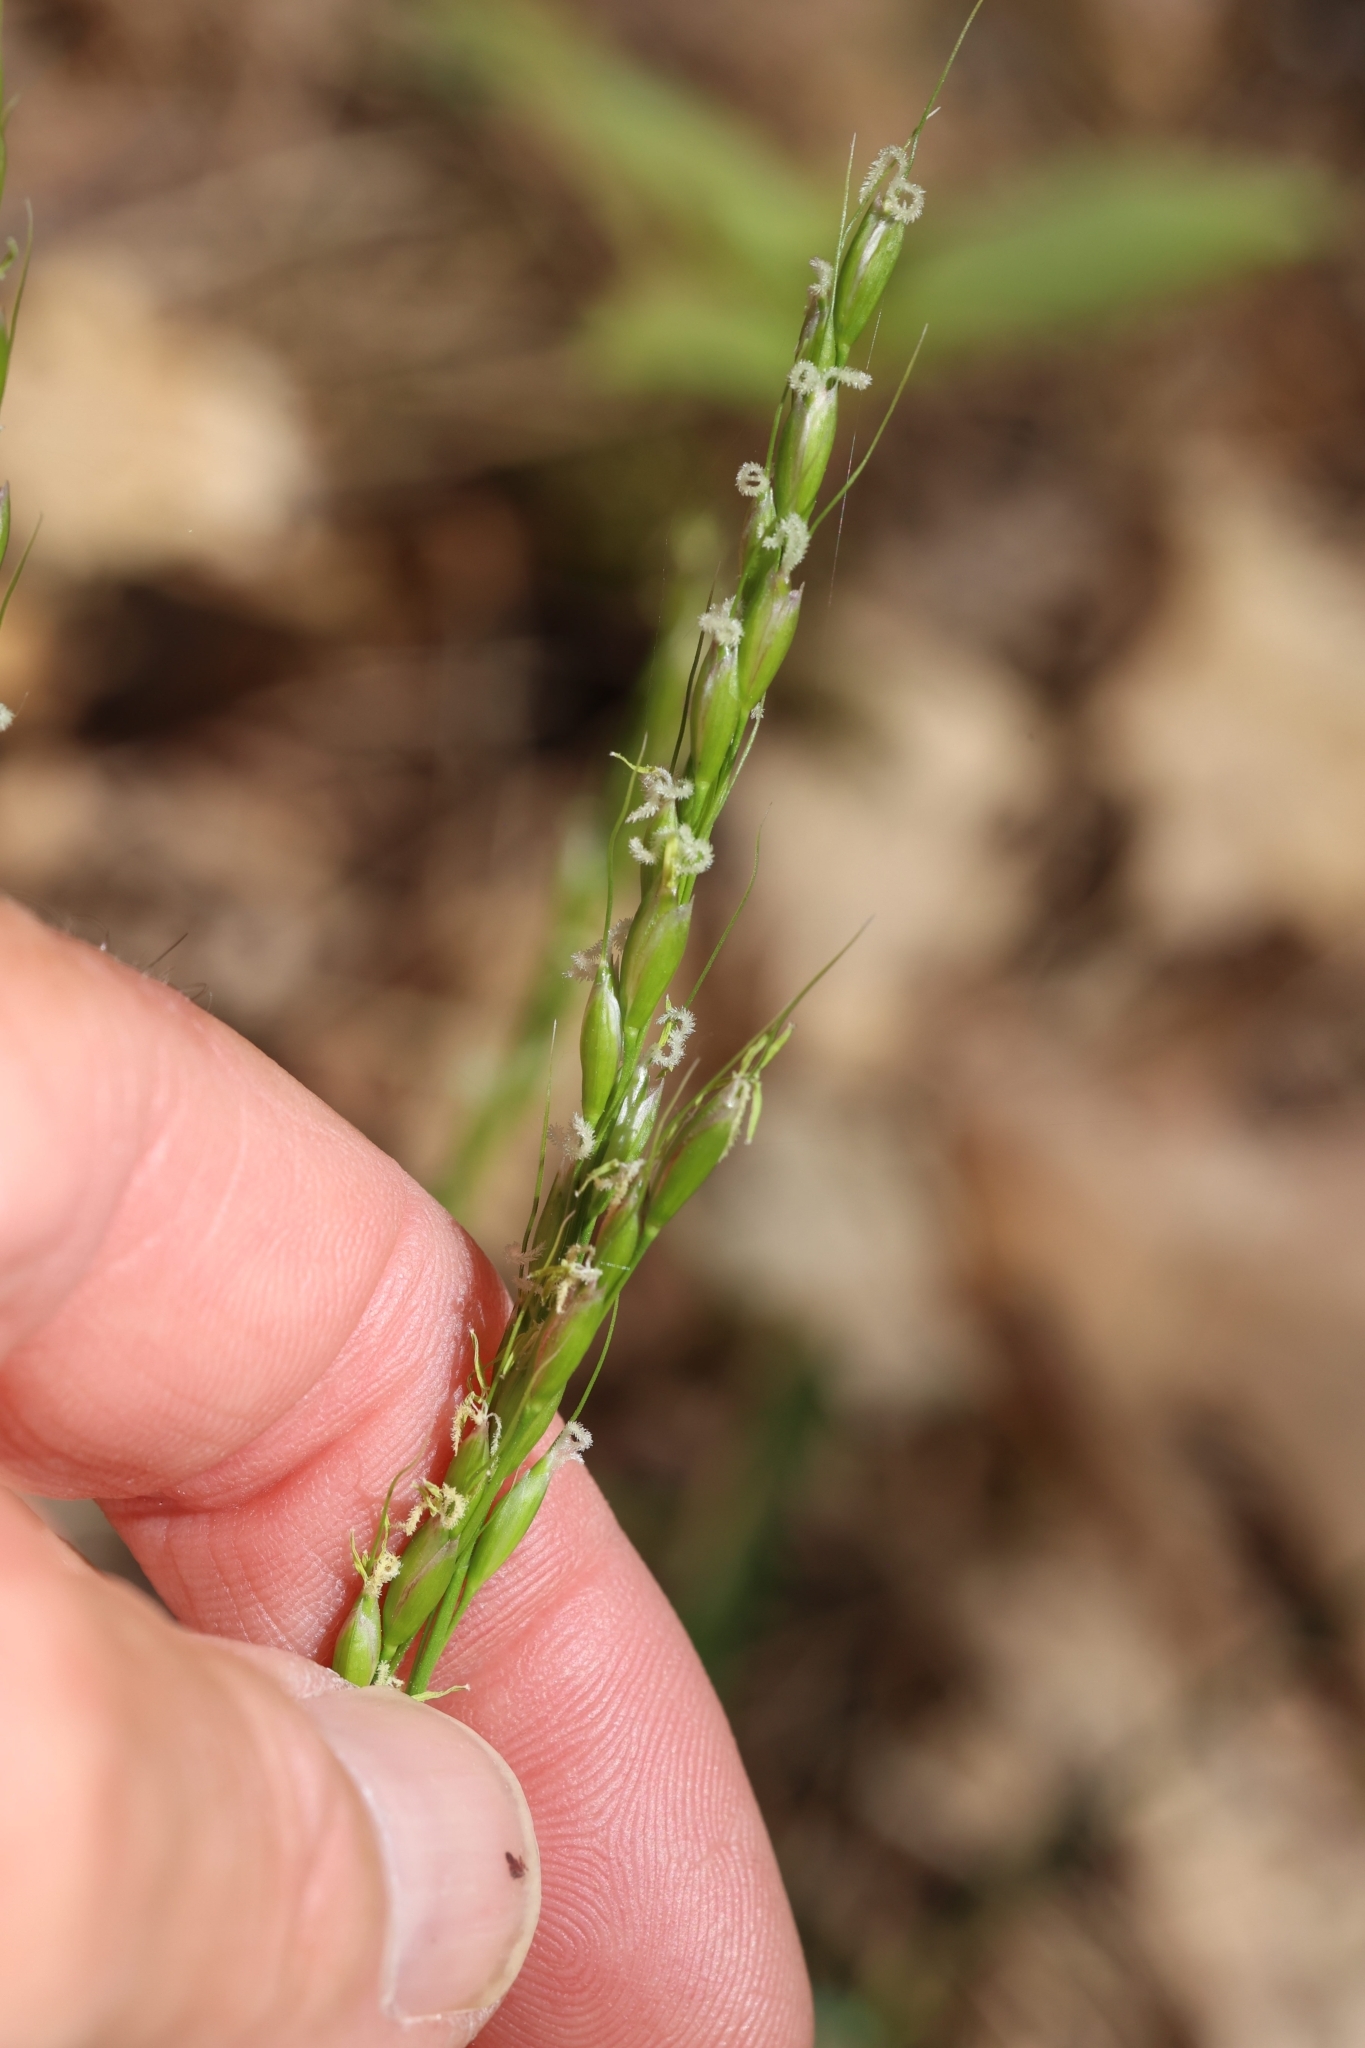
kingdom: Plantae
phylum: Tracheophyta
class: Liliopsida
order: Poales
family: Poaceae
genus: Oryzopsis
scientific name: Oryzopsis asperifolia
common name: Rough-leaved mountain rice
